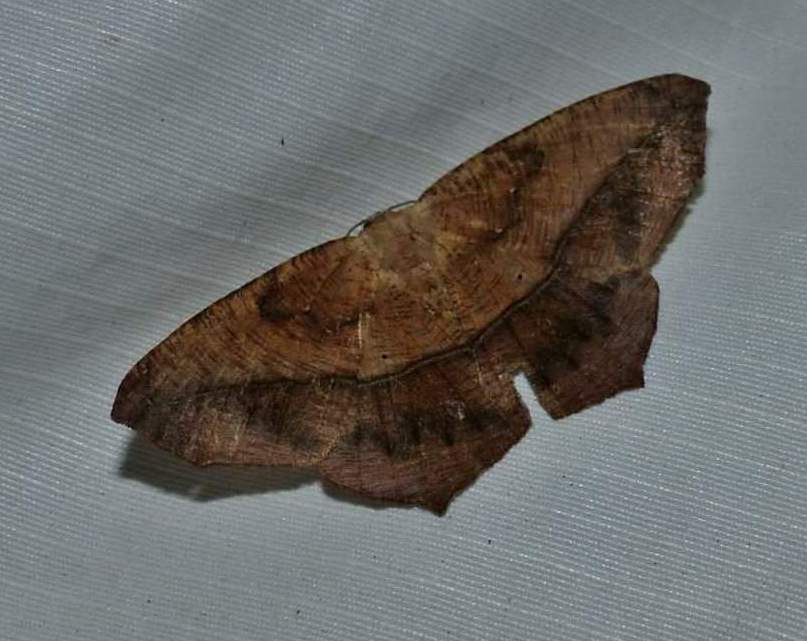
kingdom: Animalia
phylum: Arthropoda
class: Insecta
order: Lepidoptera
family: Geometridae
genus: Prochoerodes
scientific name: Prochoerodes lineola
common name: Large maple spanworm
